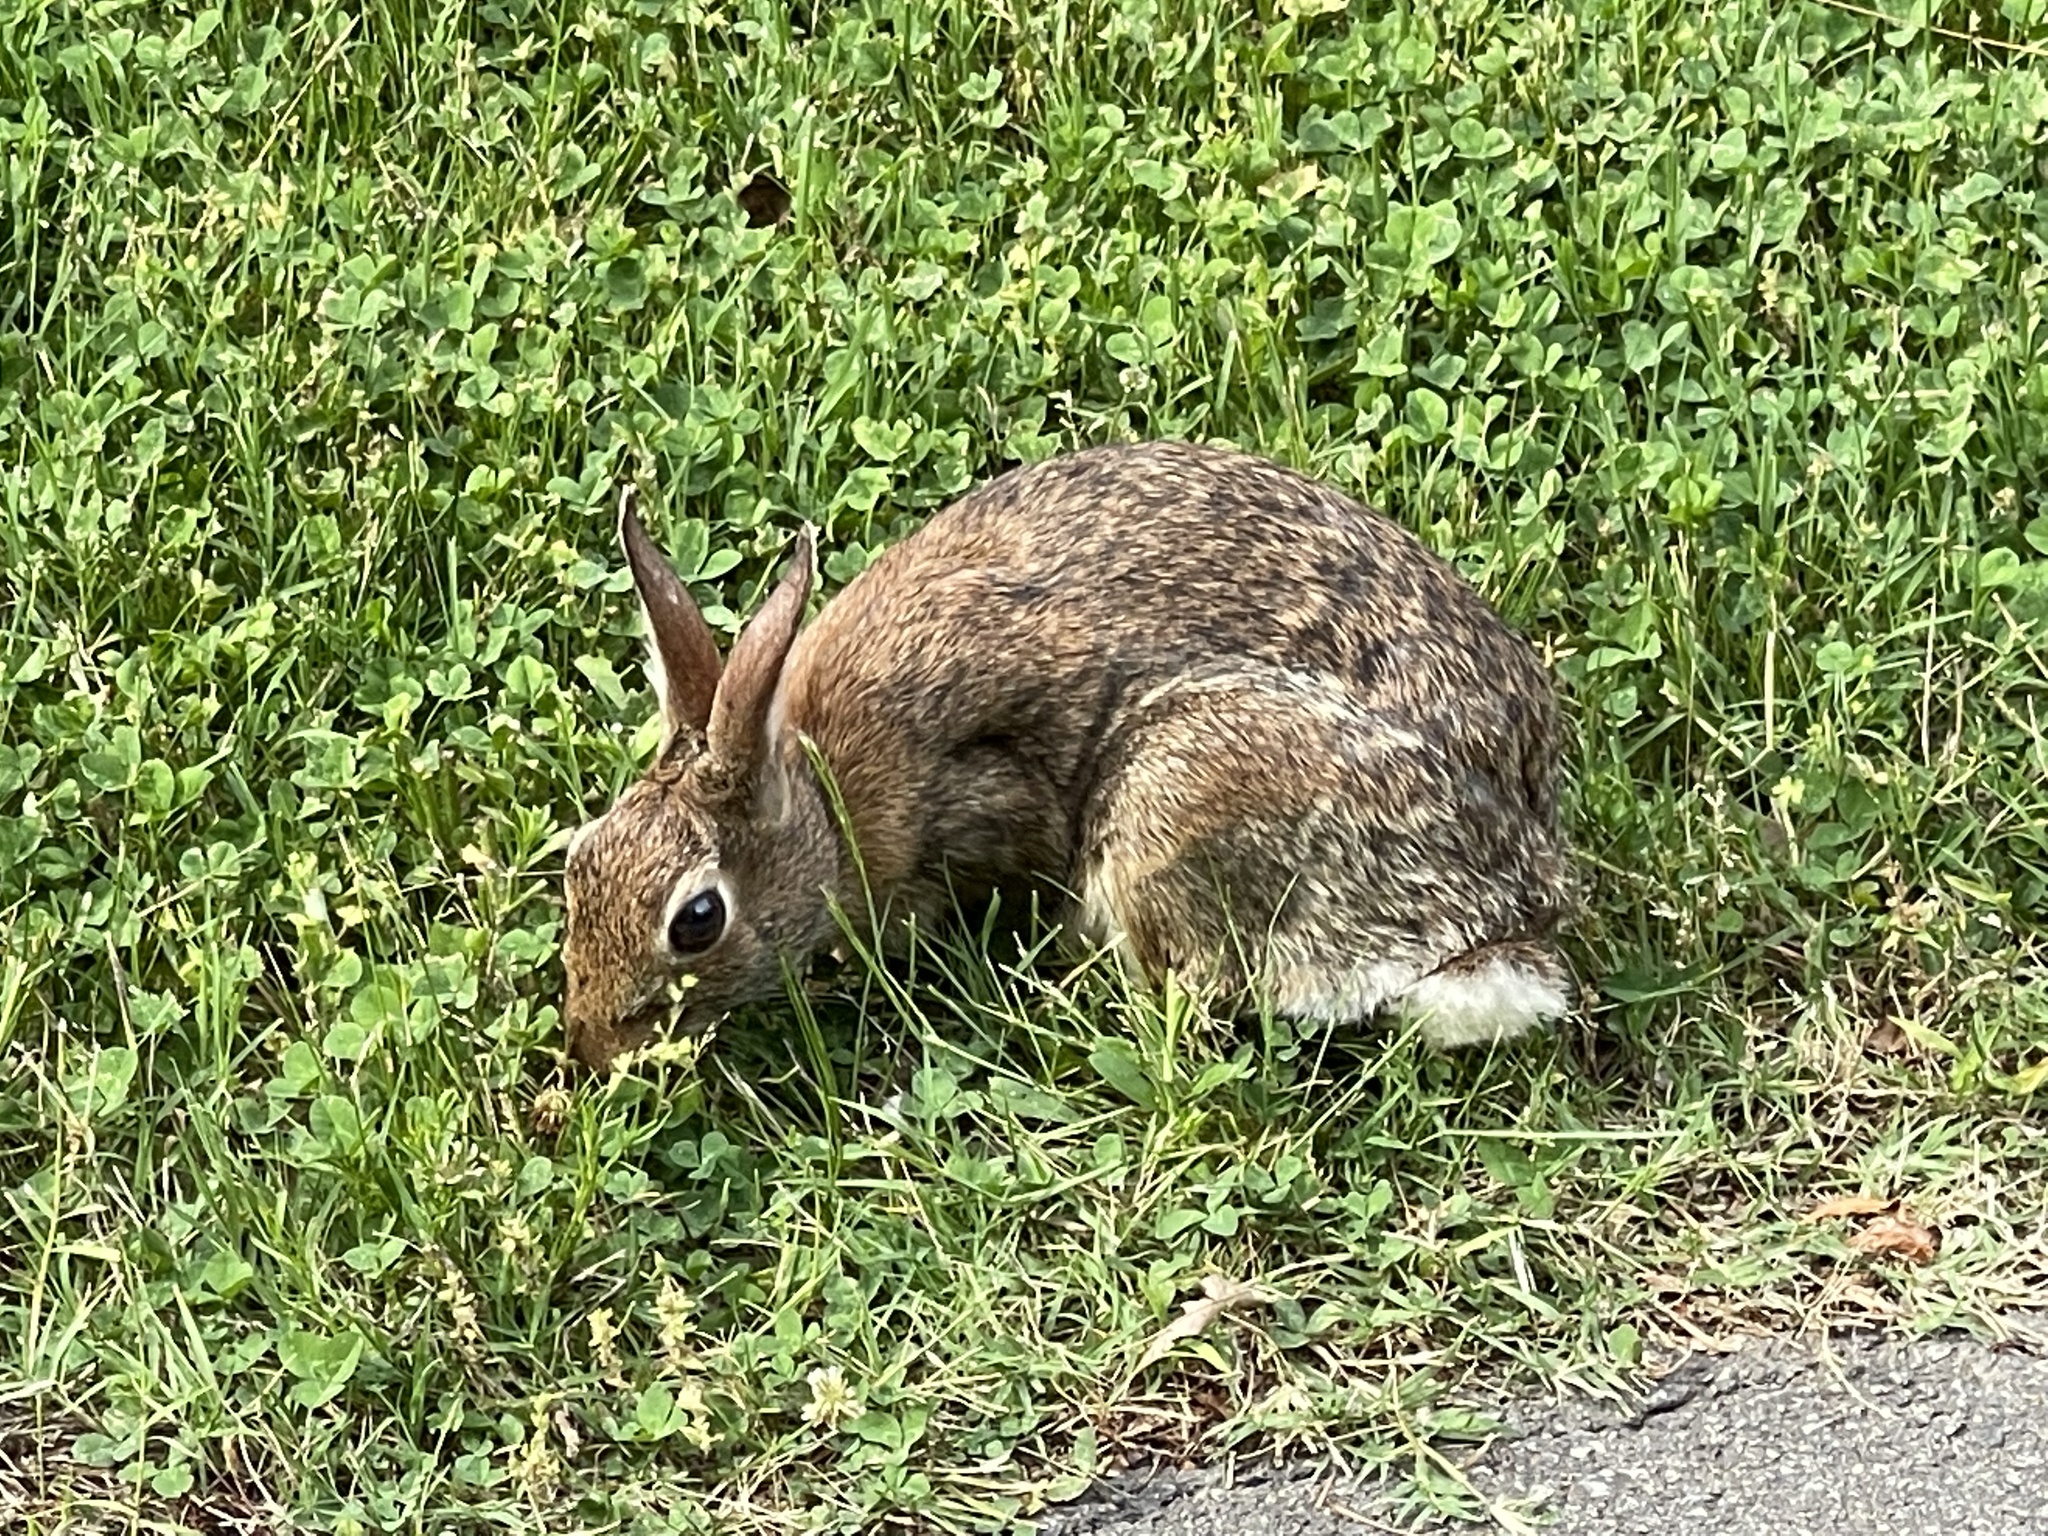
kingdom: Animalia
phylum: Chordata
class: Mammalia
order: Lagomorpha
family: Leporidae
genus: Sylvilagus
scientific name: Sylvilagus floridanus
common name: Eastern cottontail
